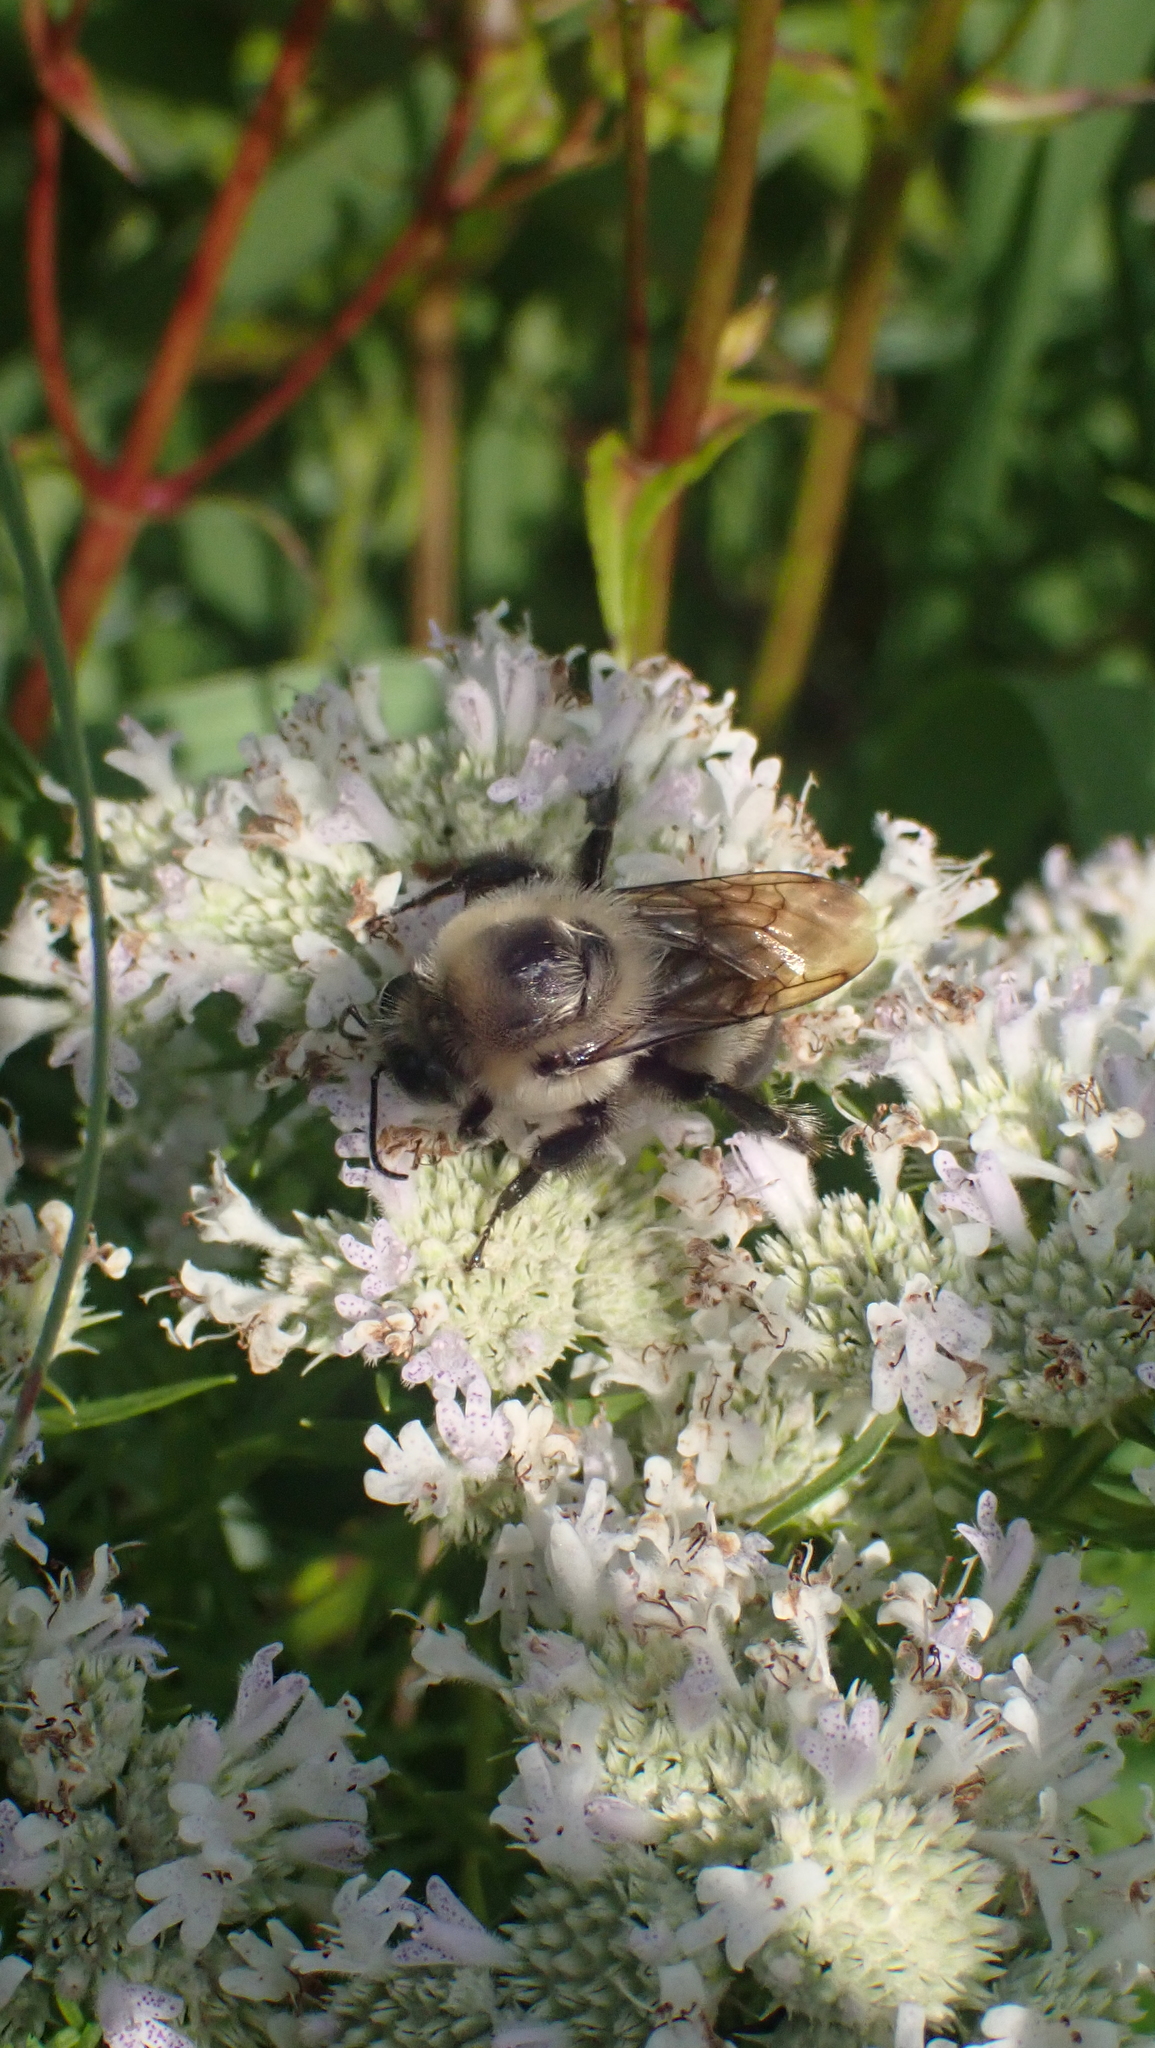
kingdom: Animalia
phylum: Arthropoda
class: Insecta
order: Hymenoptera
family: Apidae
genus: Bombus
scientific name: Bombus griseocollis
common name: Brown-belted bumble bee
